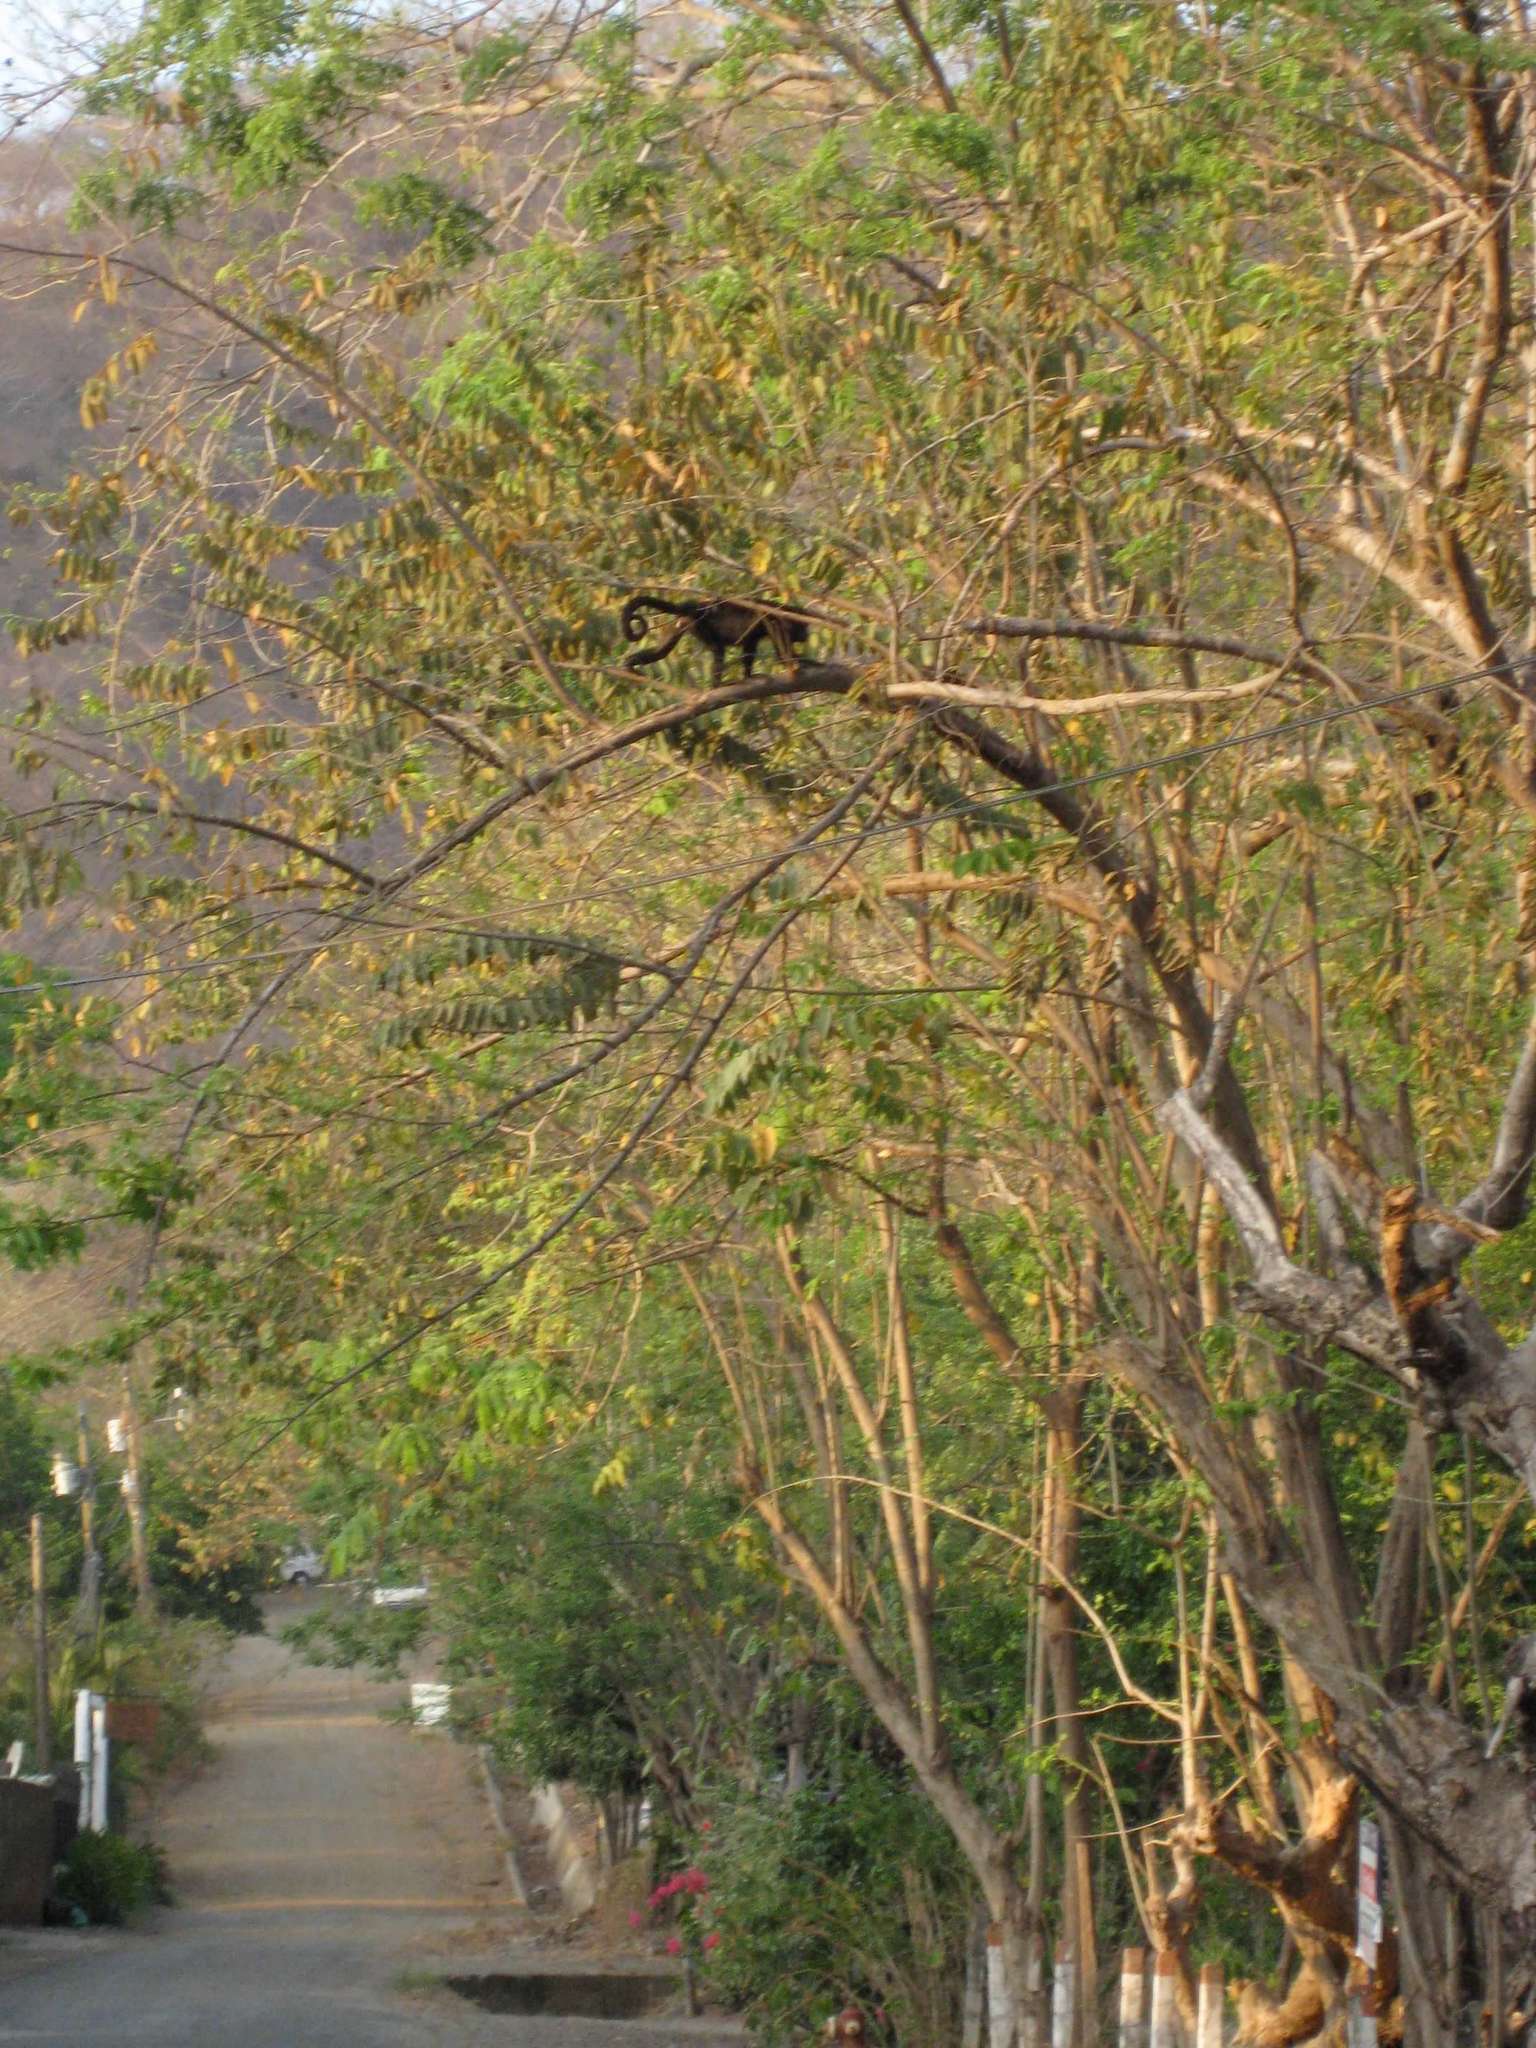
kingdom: Animalia
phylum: Chordata
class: Mammalia
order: Primates
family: Atelidae
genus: Alouatta
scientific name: Alouatta palliata
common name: Mantled howler
